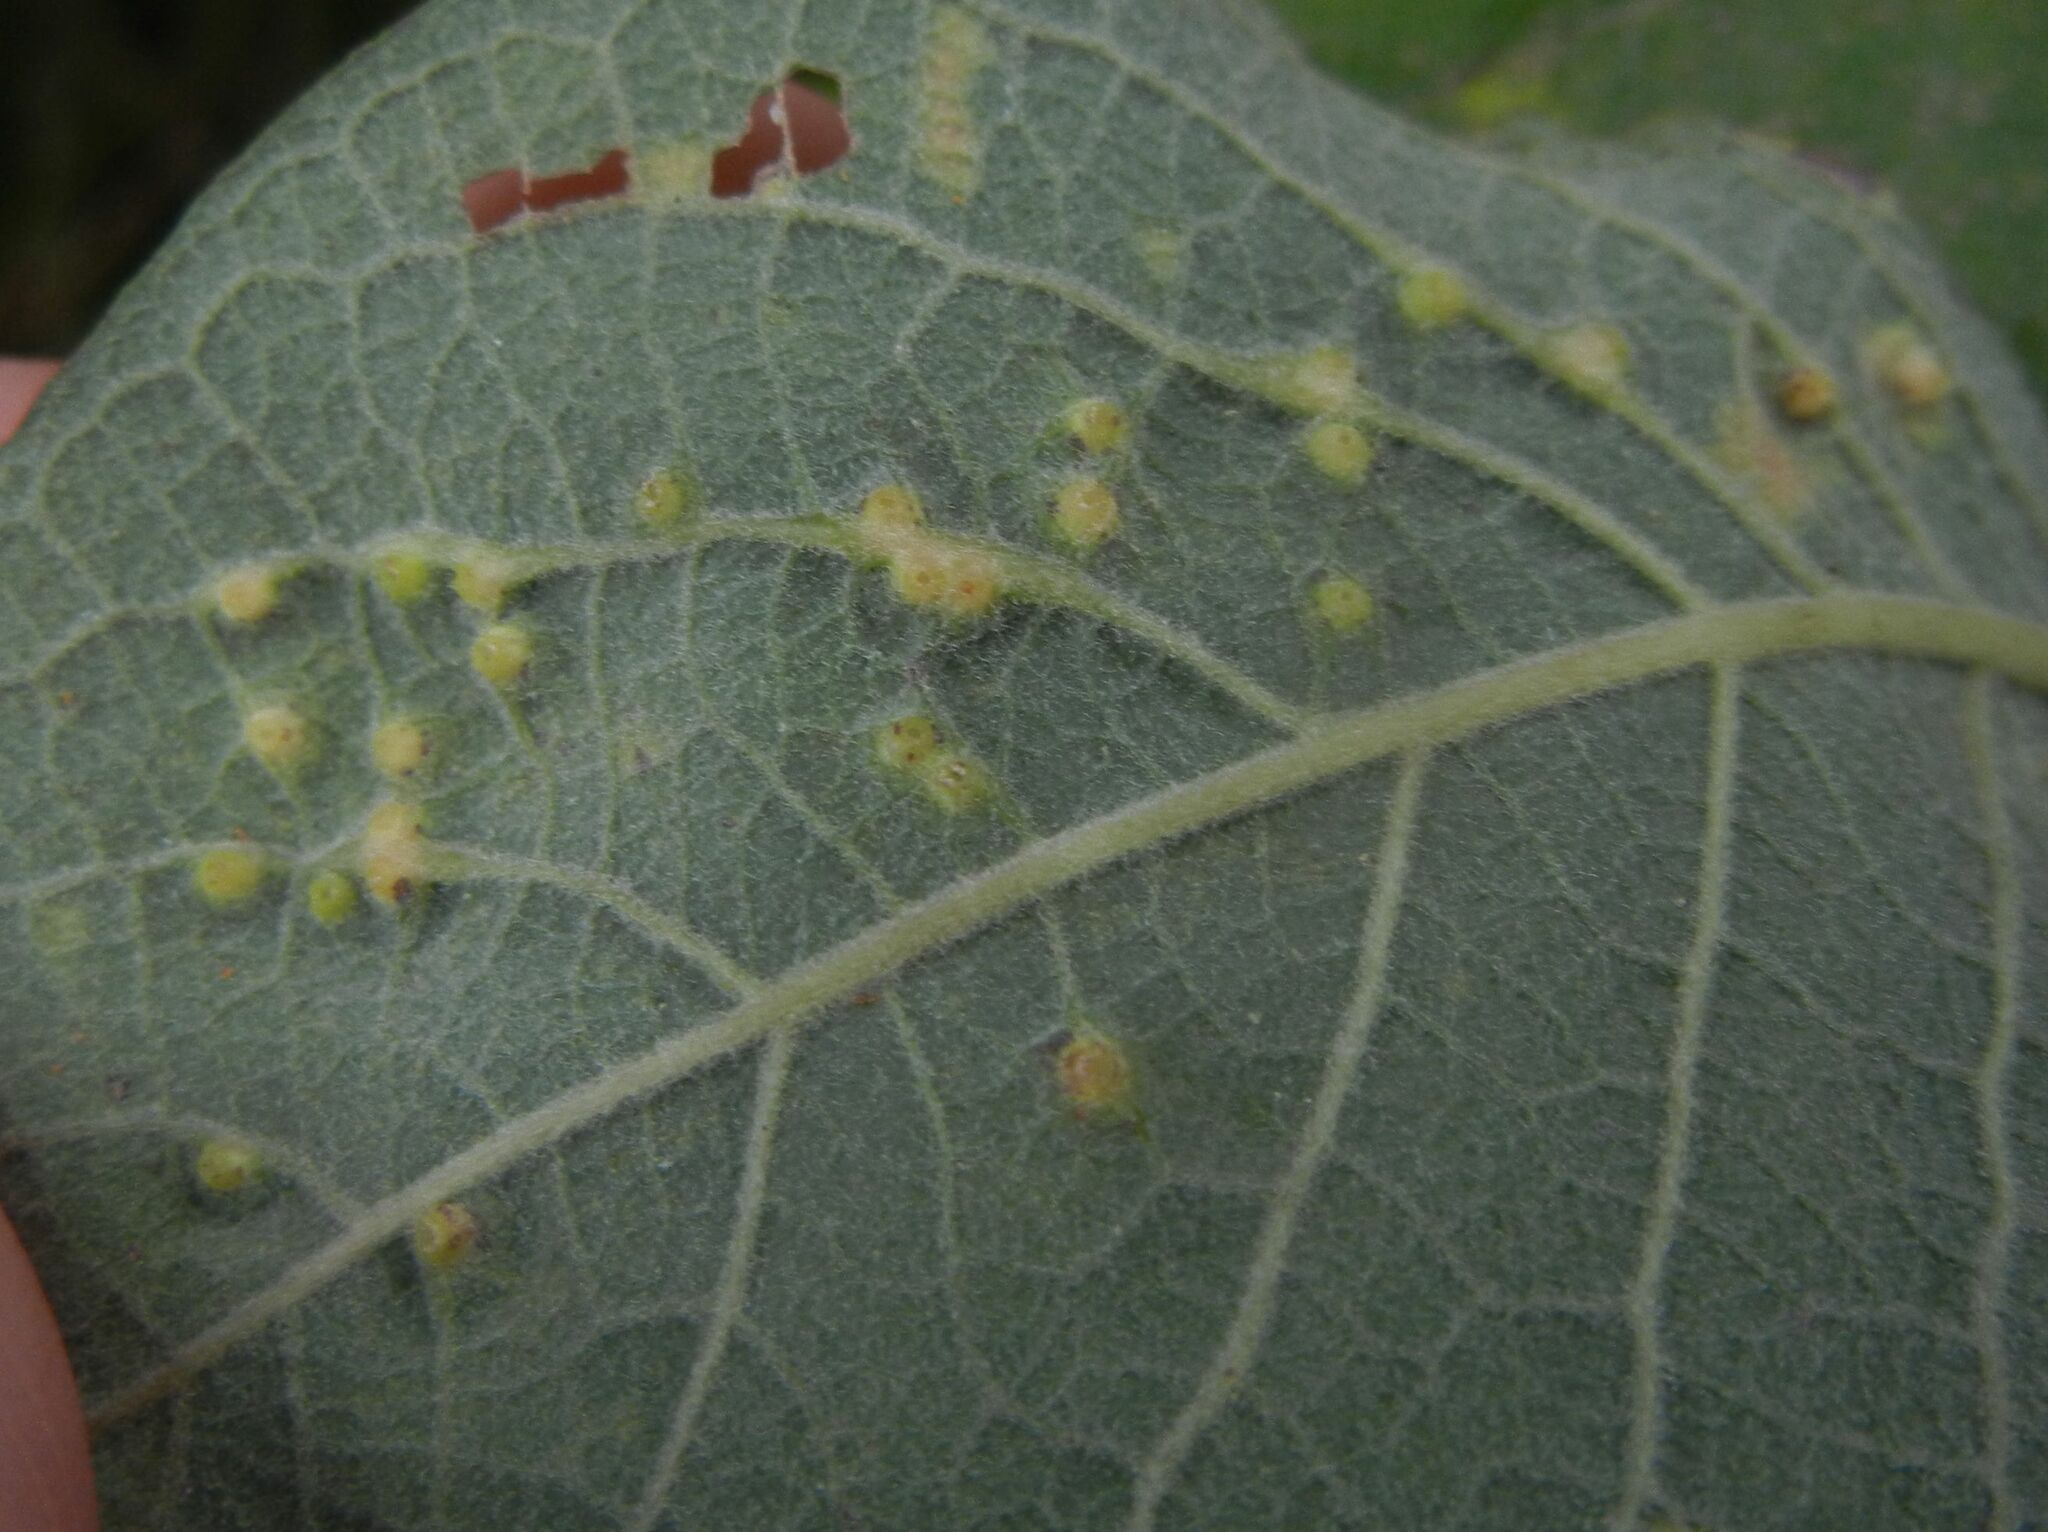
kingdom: Animalia
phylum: Arthropoda
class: Insecta
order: Diptera
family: Cecidomyiidae
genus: Iteomyia
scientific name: Iteomyia capreae
